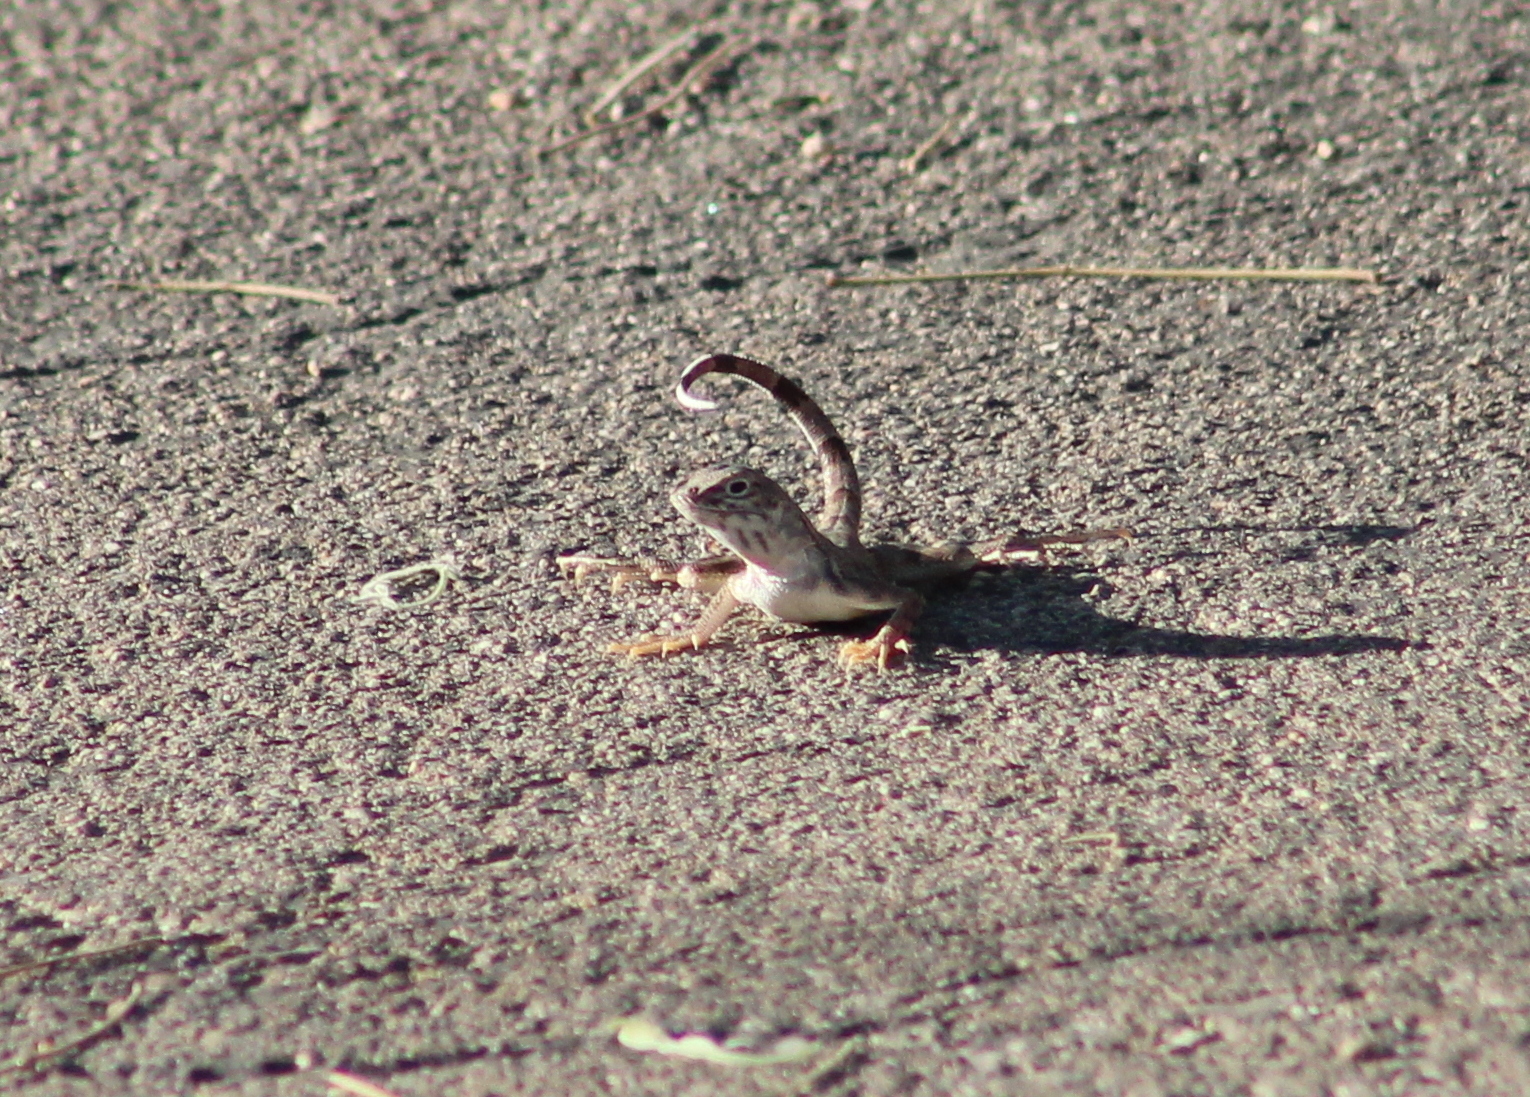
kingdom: Animalia
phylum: Chordata
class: Squamata
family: Phrynosomatidae
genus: Callisaurus
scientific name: Callisaurus draconoides
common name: Zebra-tailed lizard
